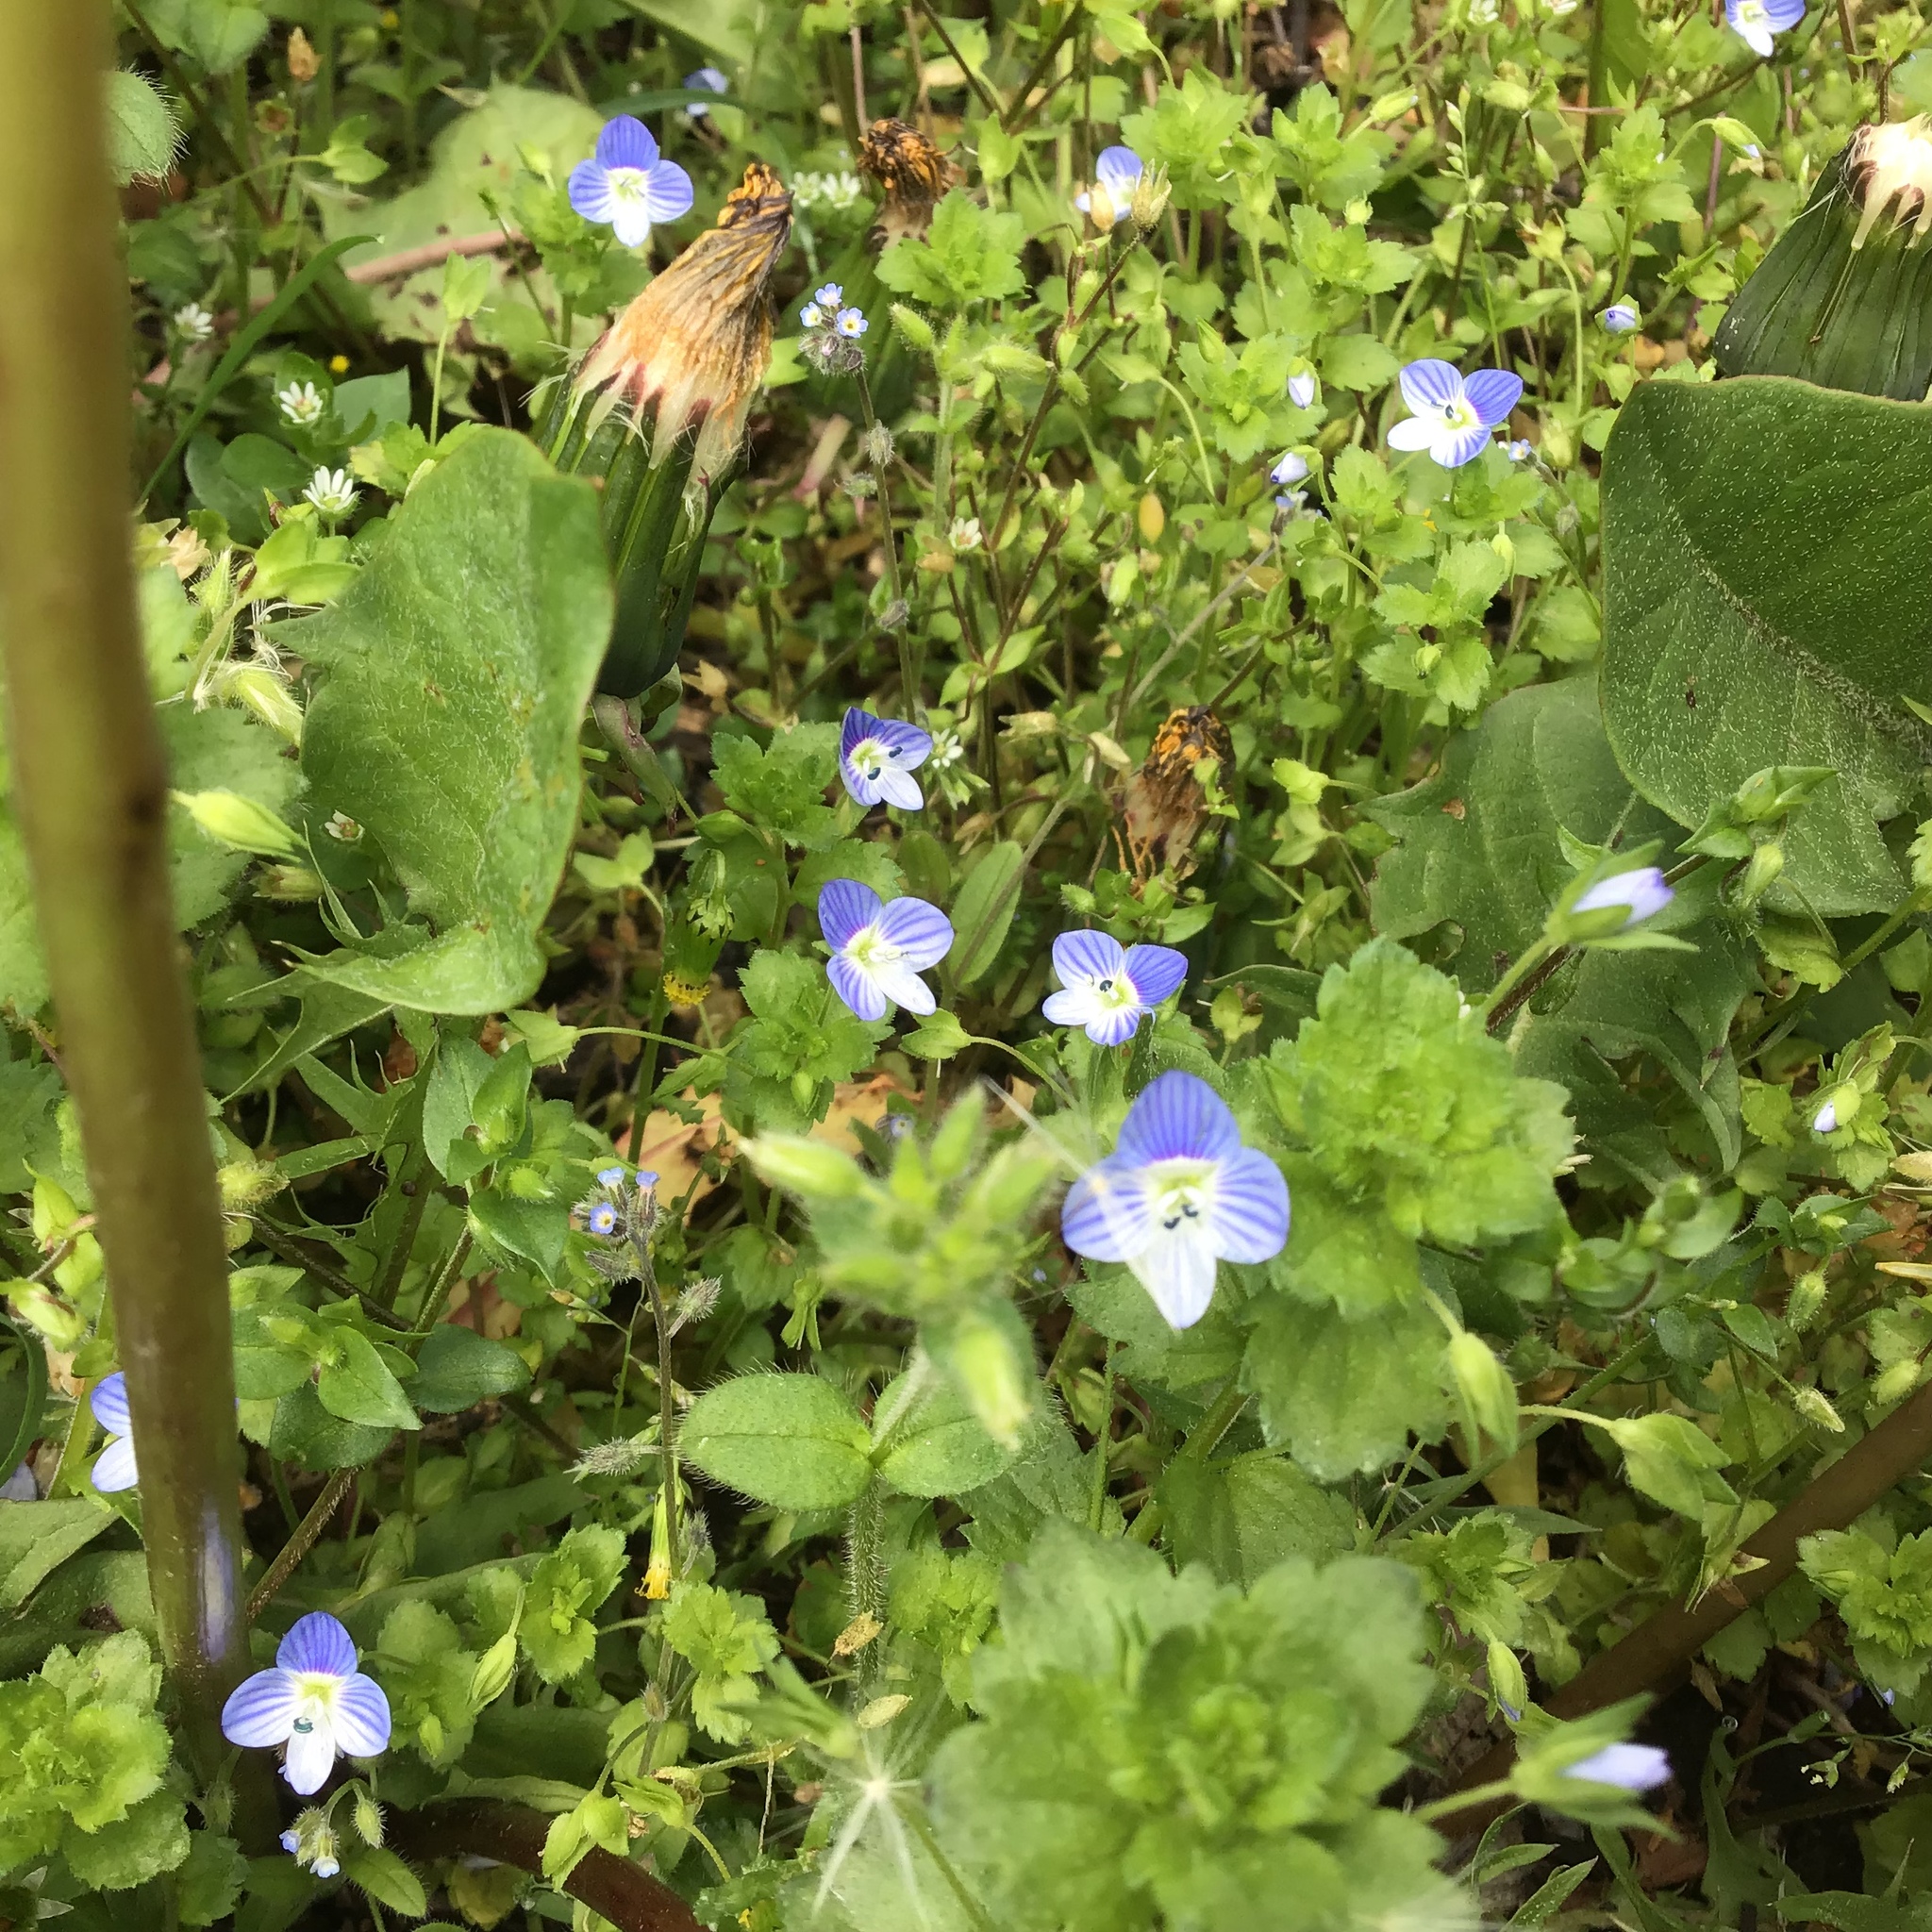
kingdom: Plantae
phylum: Tracheophyta
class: Magnoliopsida
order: Lamiales
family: Plantaginaceae
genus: Veronica
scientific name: Veronica persica
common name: Common field-speedwell
